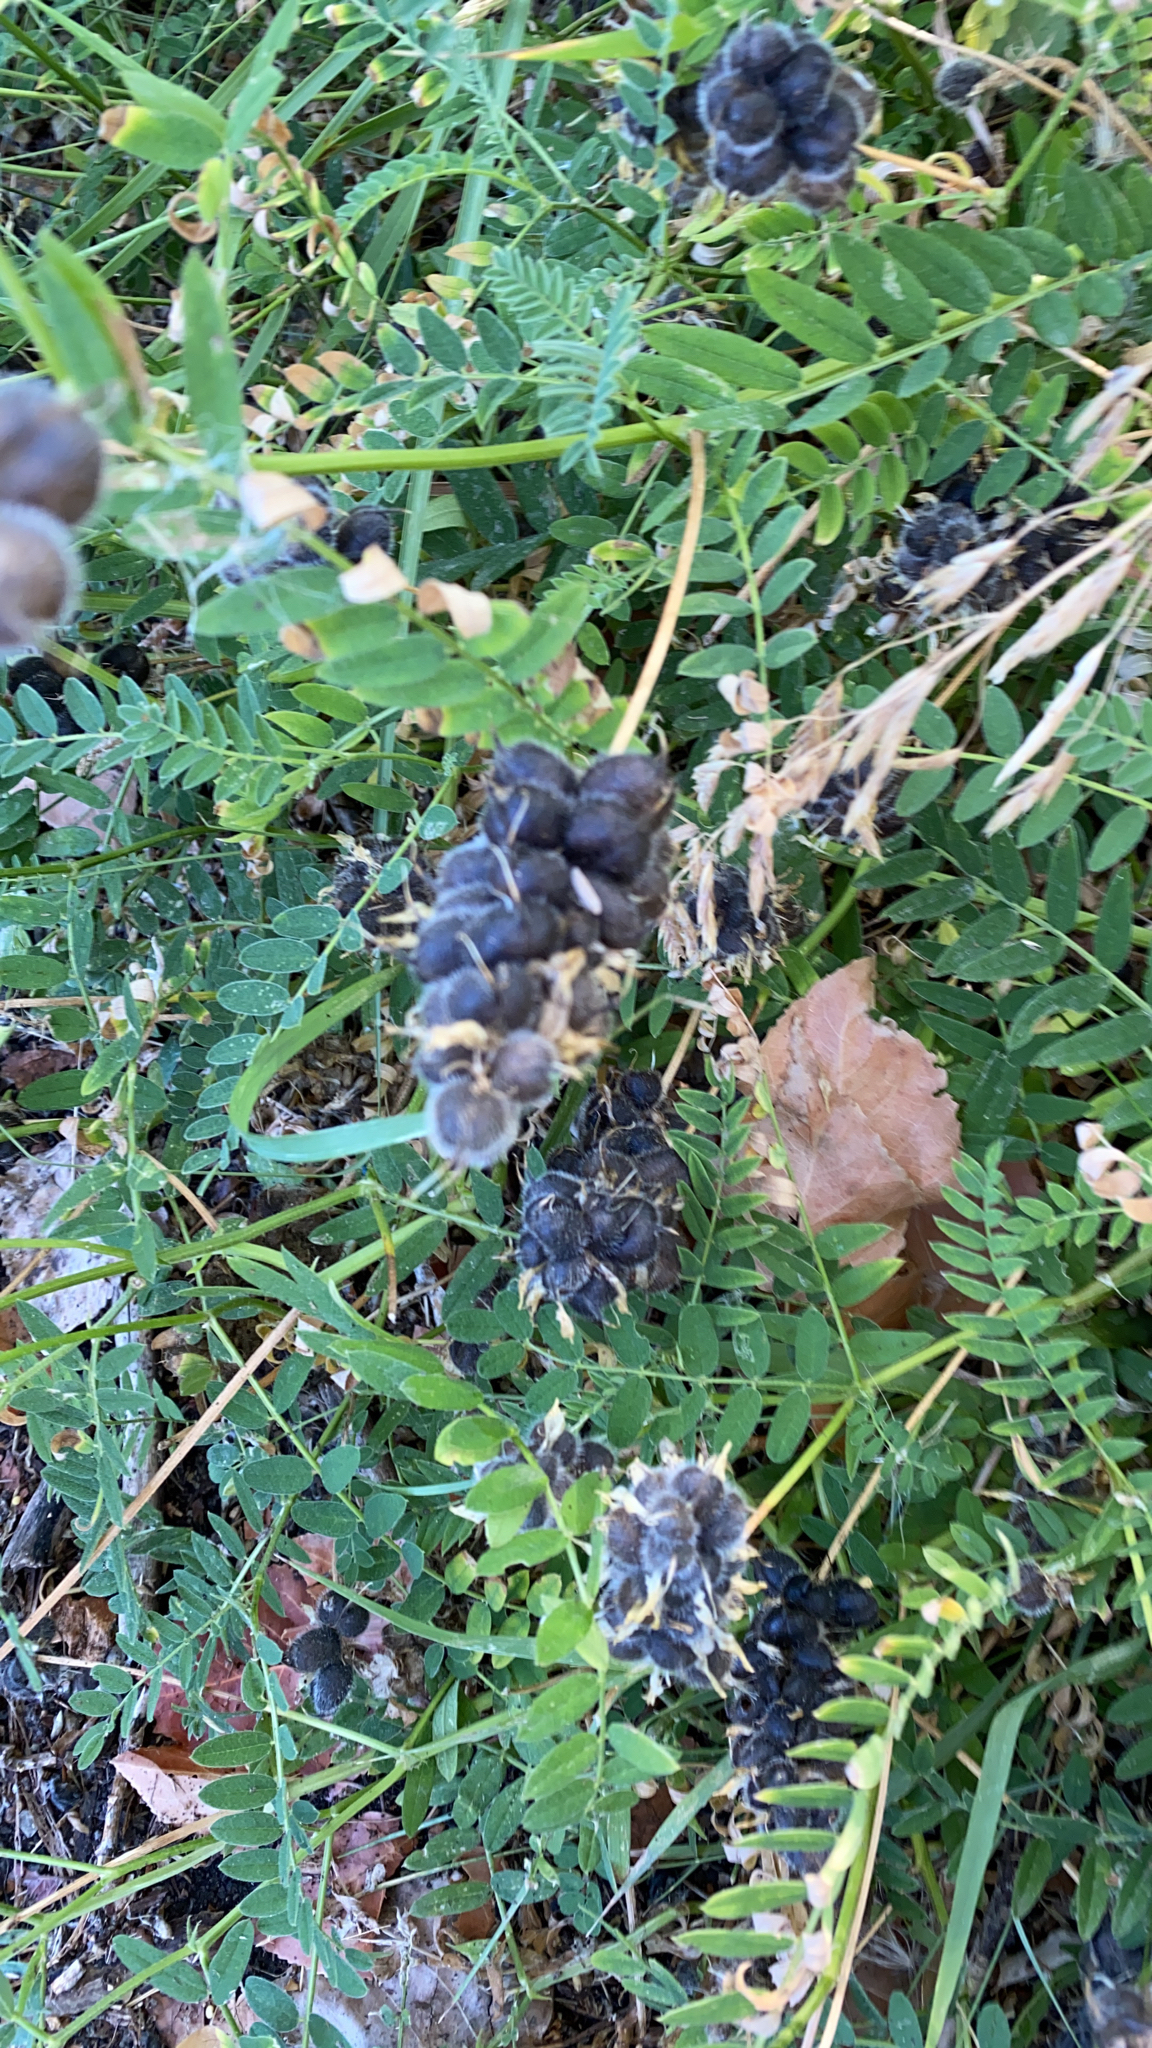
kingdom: Plantae
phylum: Tracheophyta
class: Magnoliopsida
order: Fabales
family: Fabaceae
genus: Astragalus
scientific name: Astragalus cicer
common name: Chick-pea milk-vetch
